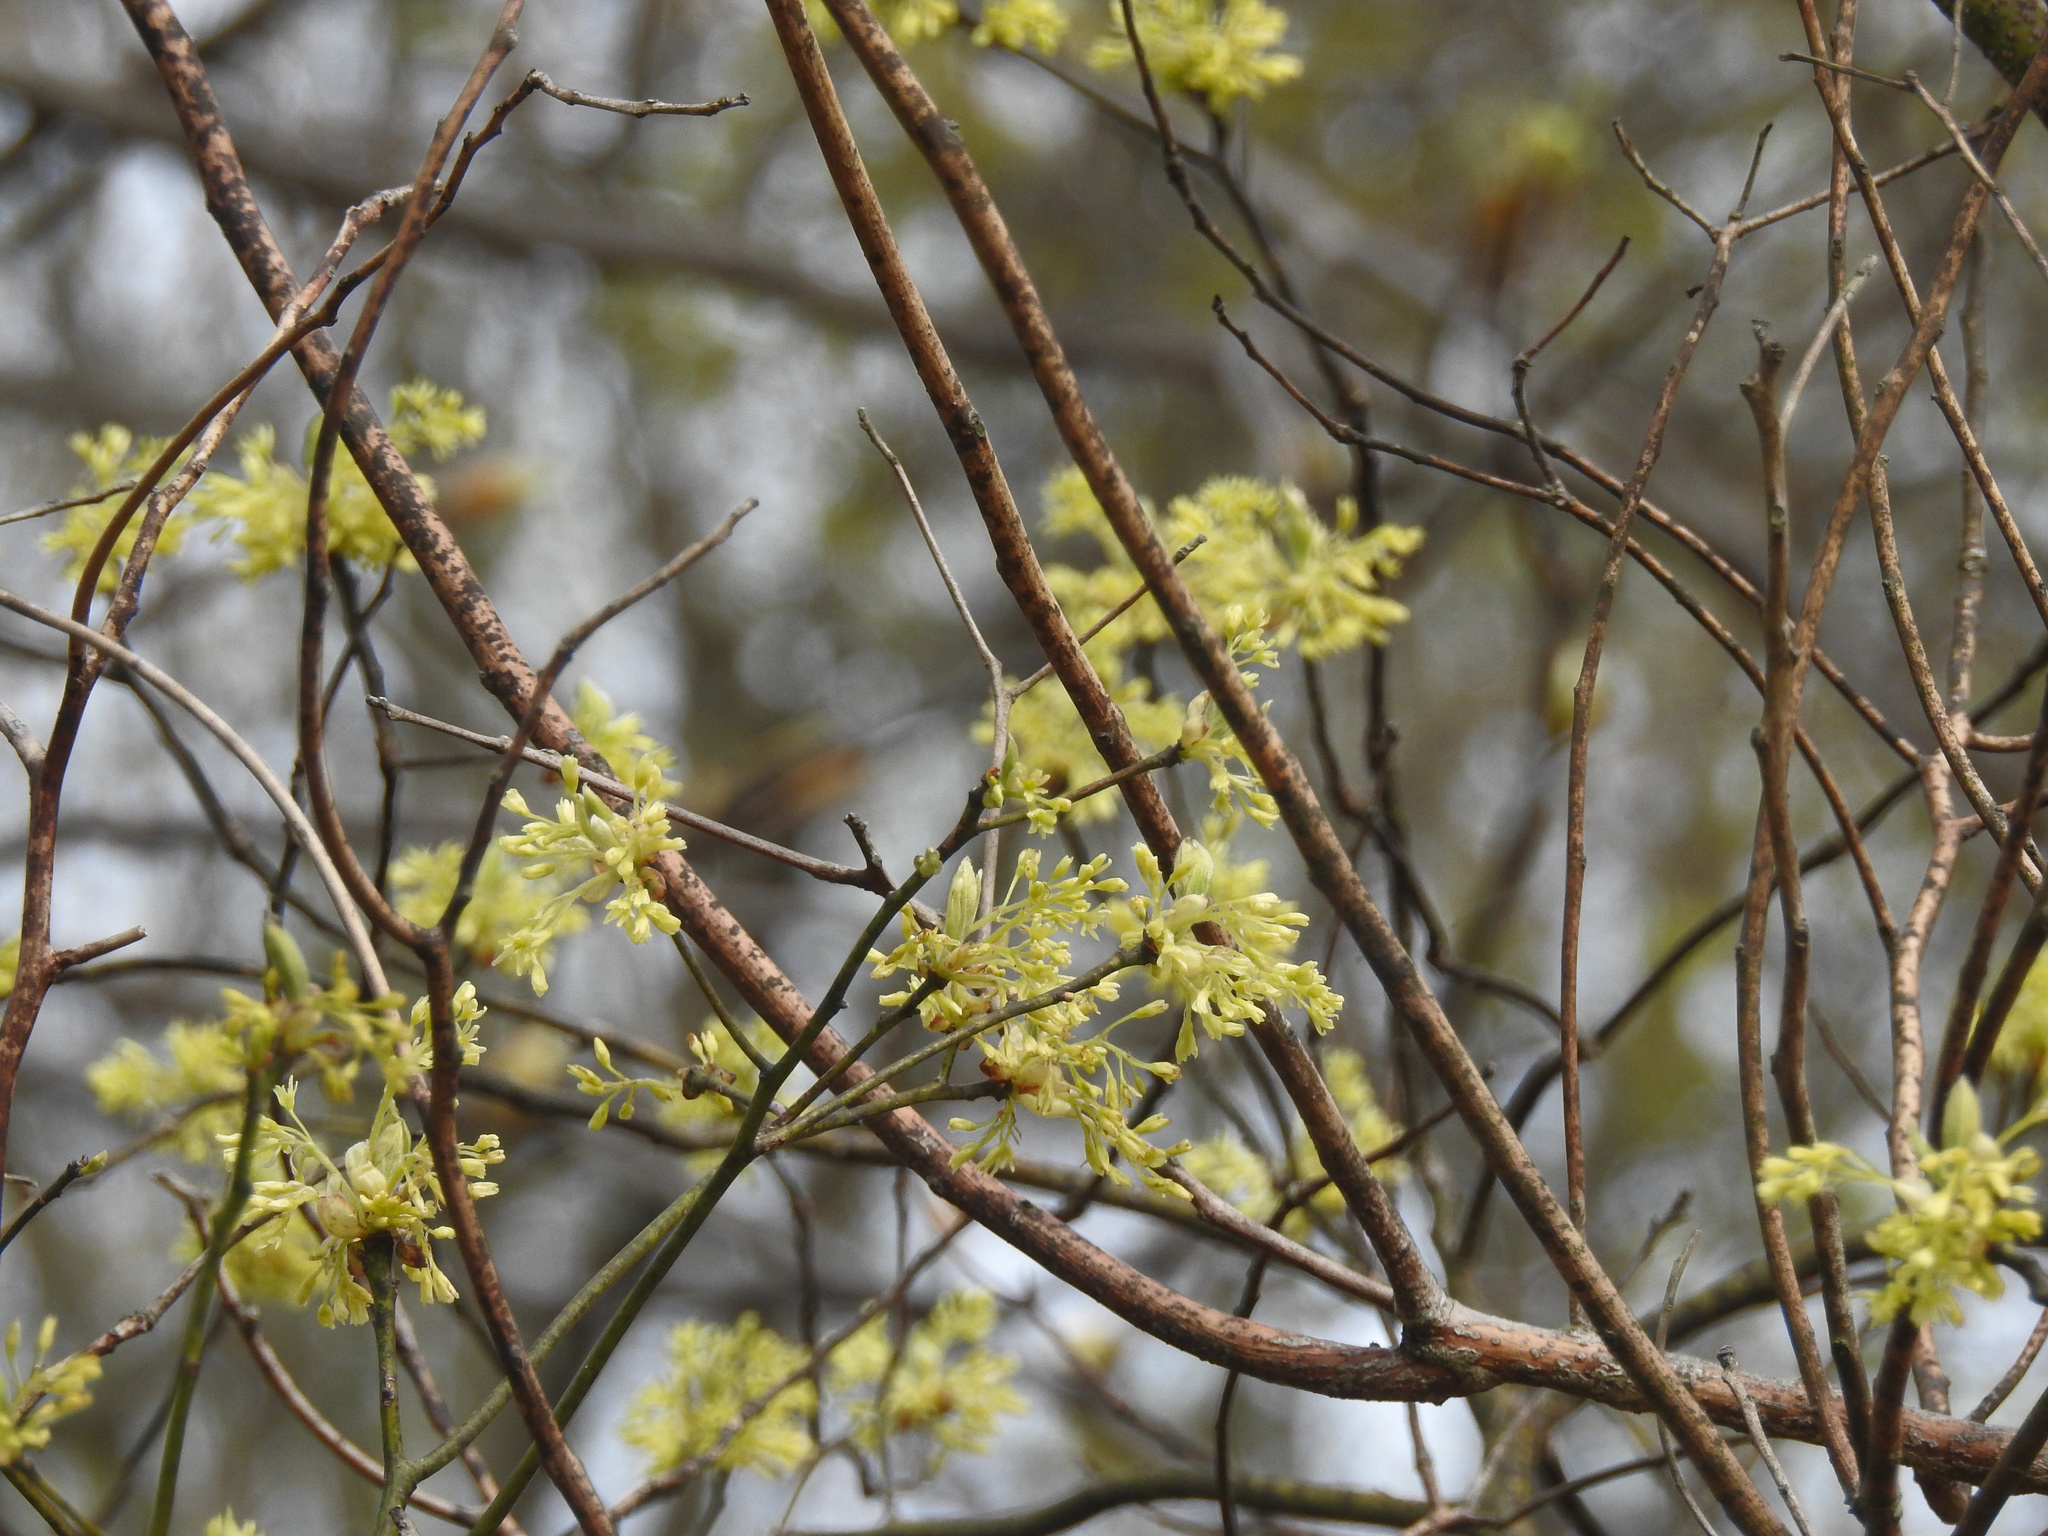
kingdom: Plantae
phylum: Tracheophyta
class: Magnoliopsida
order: Laurales
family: Lauraceae
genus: Sassafras
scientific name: Sassafras albidum
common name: Sassafras
